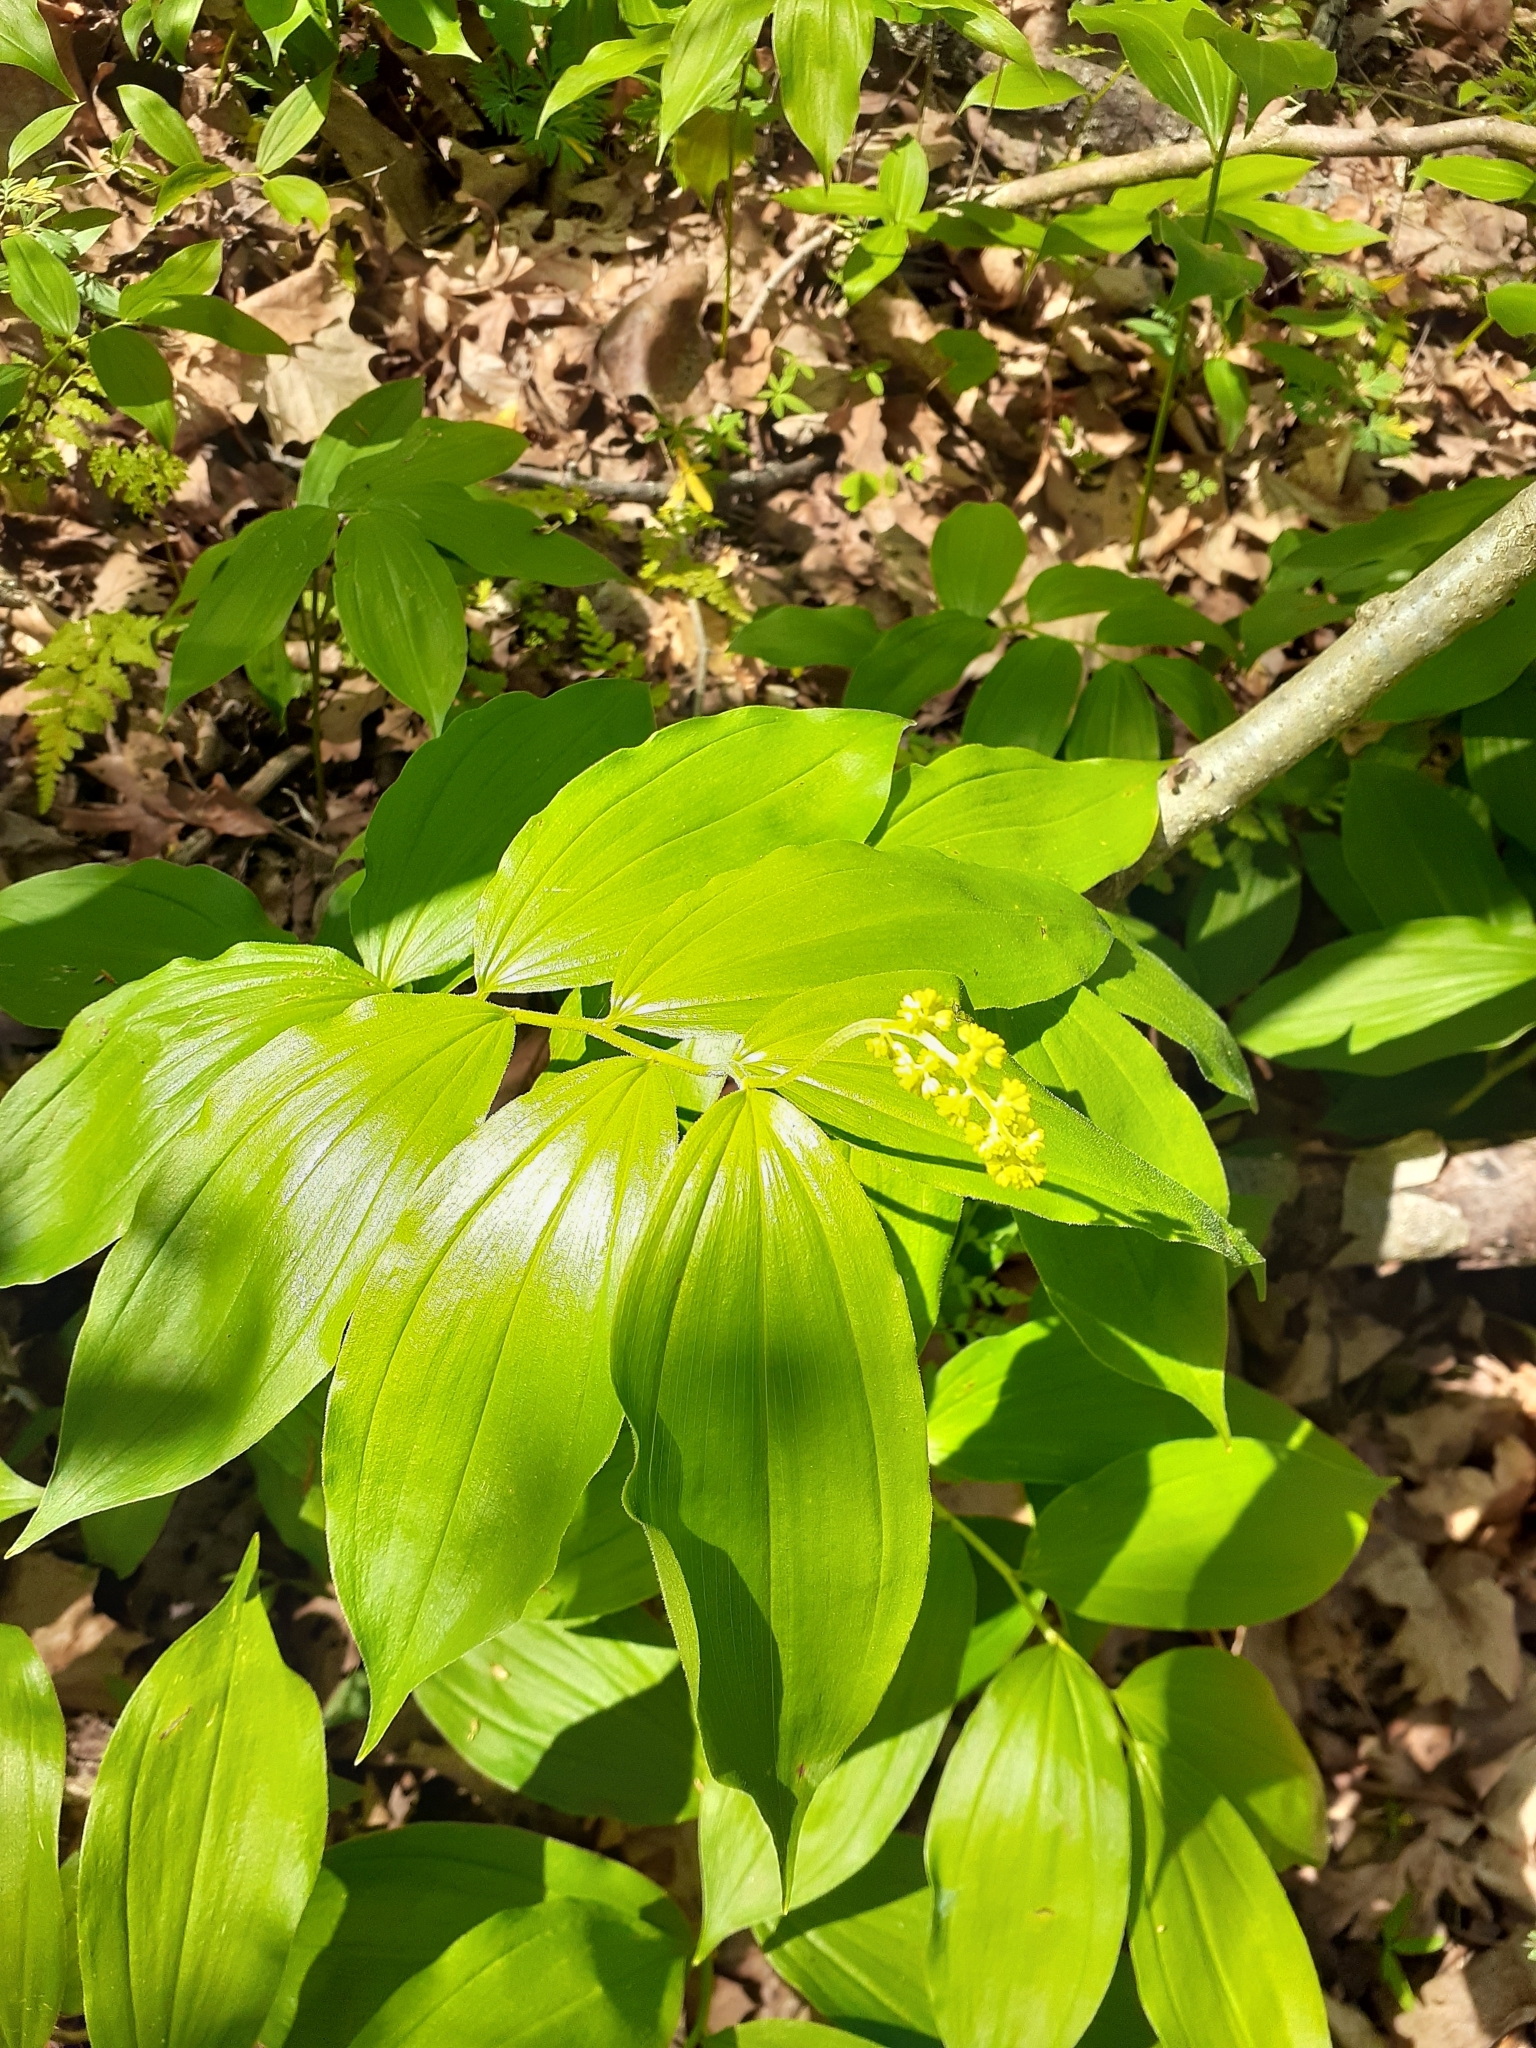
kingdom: Plantae
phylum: Tracheophyta
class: Liliopsida
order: Asparagales
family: Asparagaceae
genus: Maianthemum
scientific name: Maianthemum racemosum
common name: False spikenard
